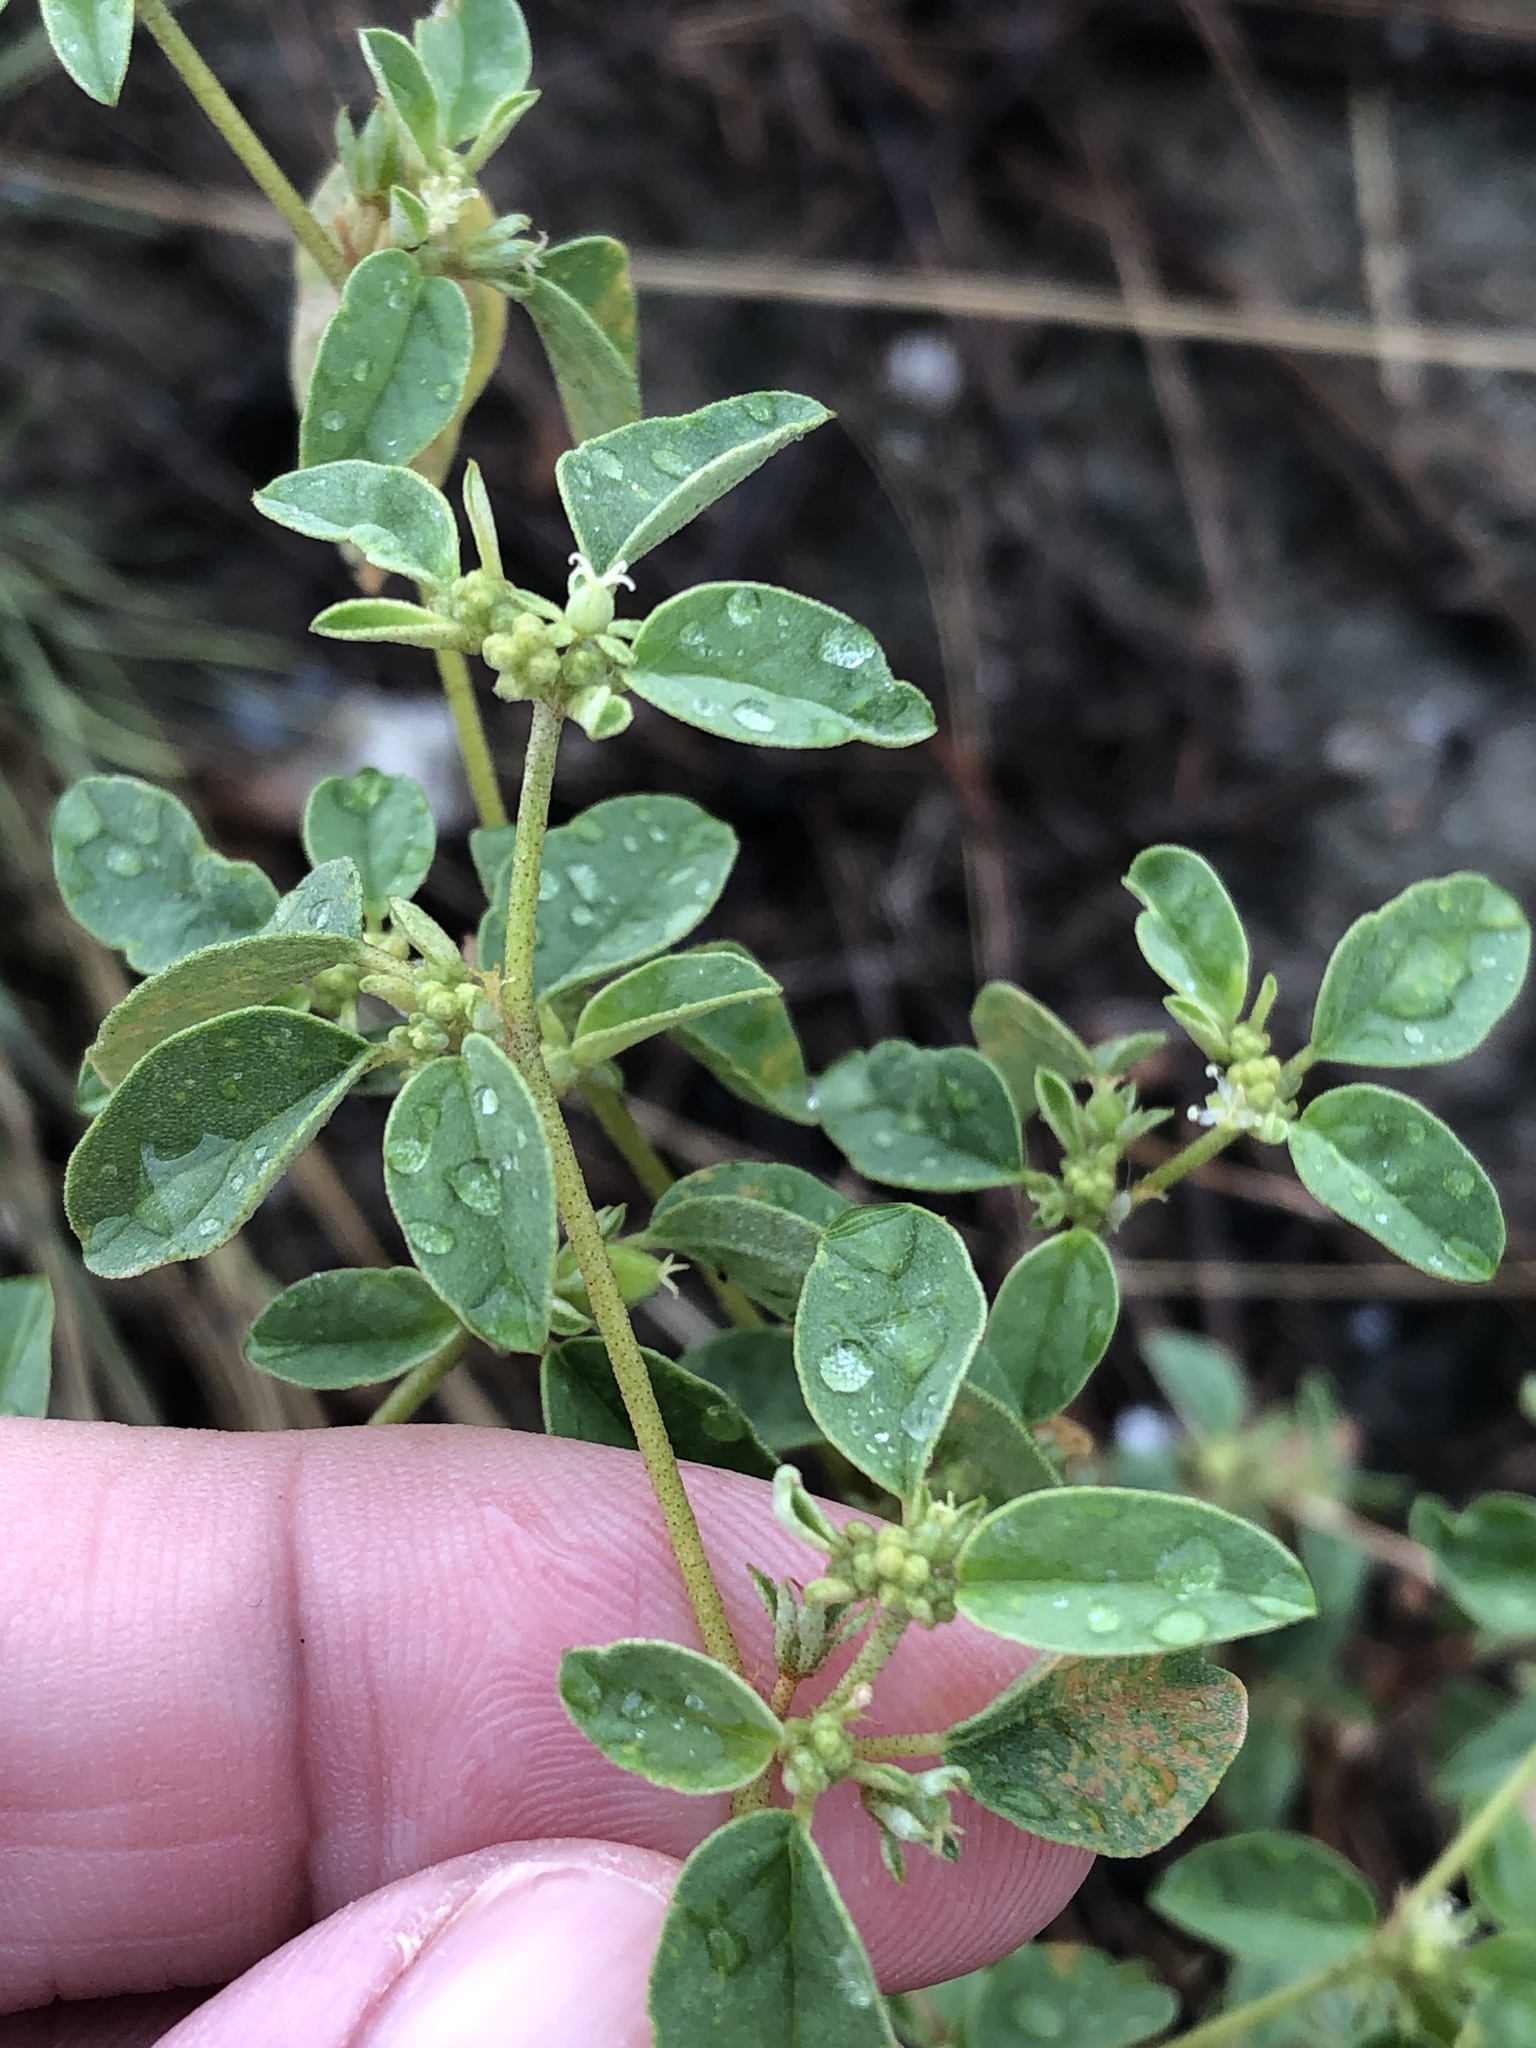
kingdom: Plantae
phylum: Tracheophyta
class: Magnoliopsida
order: Malpighiales
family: Euphorbiaceae
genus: Croton
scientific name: Croton monanthogynus
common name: One-seed croton
